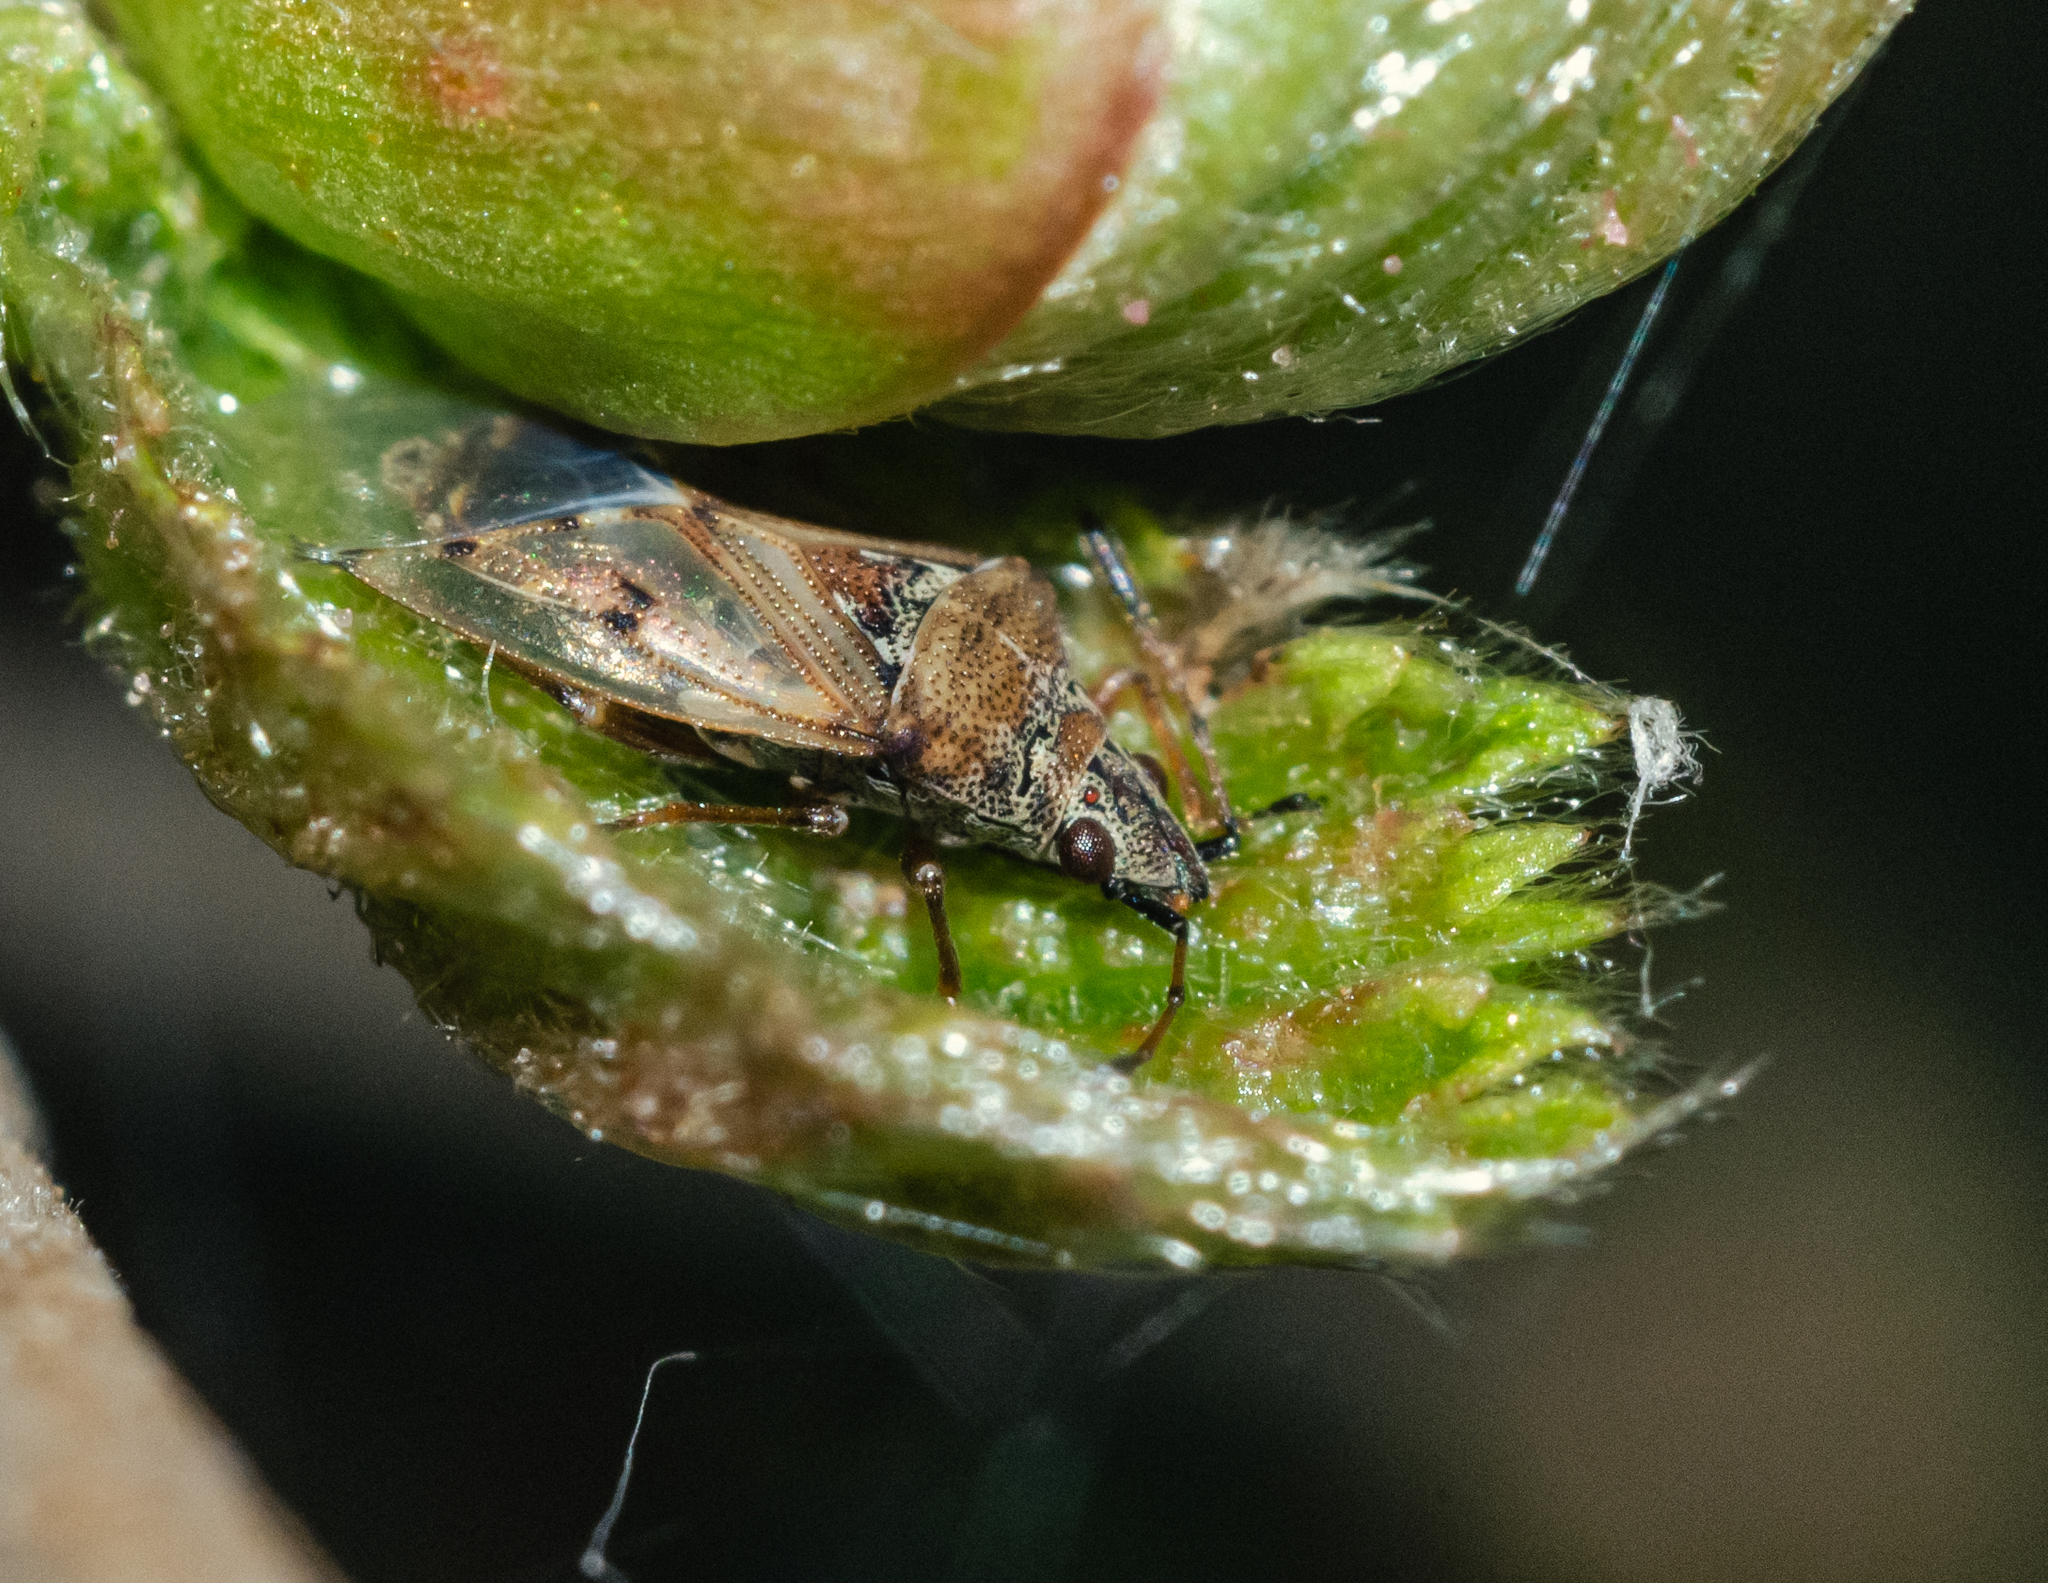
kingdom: Animalia
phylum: Arthropoda
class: Insecta
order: Hemiptera
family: Lygaeidae
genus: Kleidocerys
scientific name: Kleidocerys resedae
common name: Birch catkin bug
